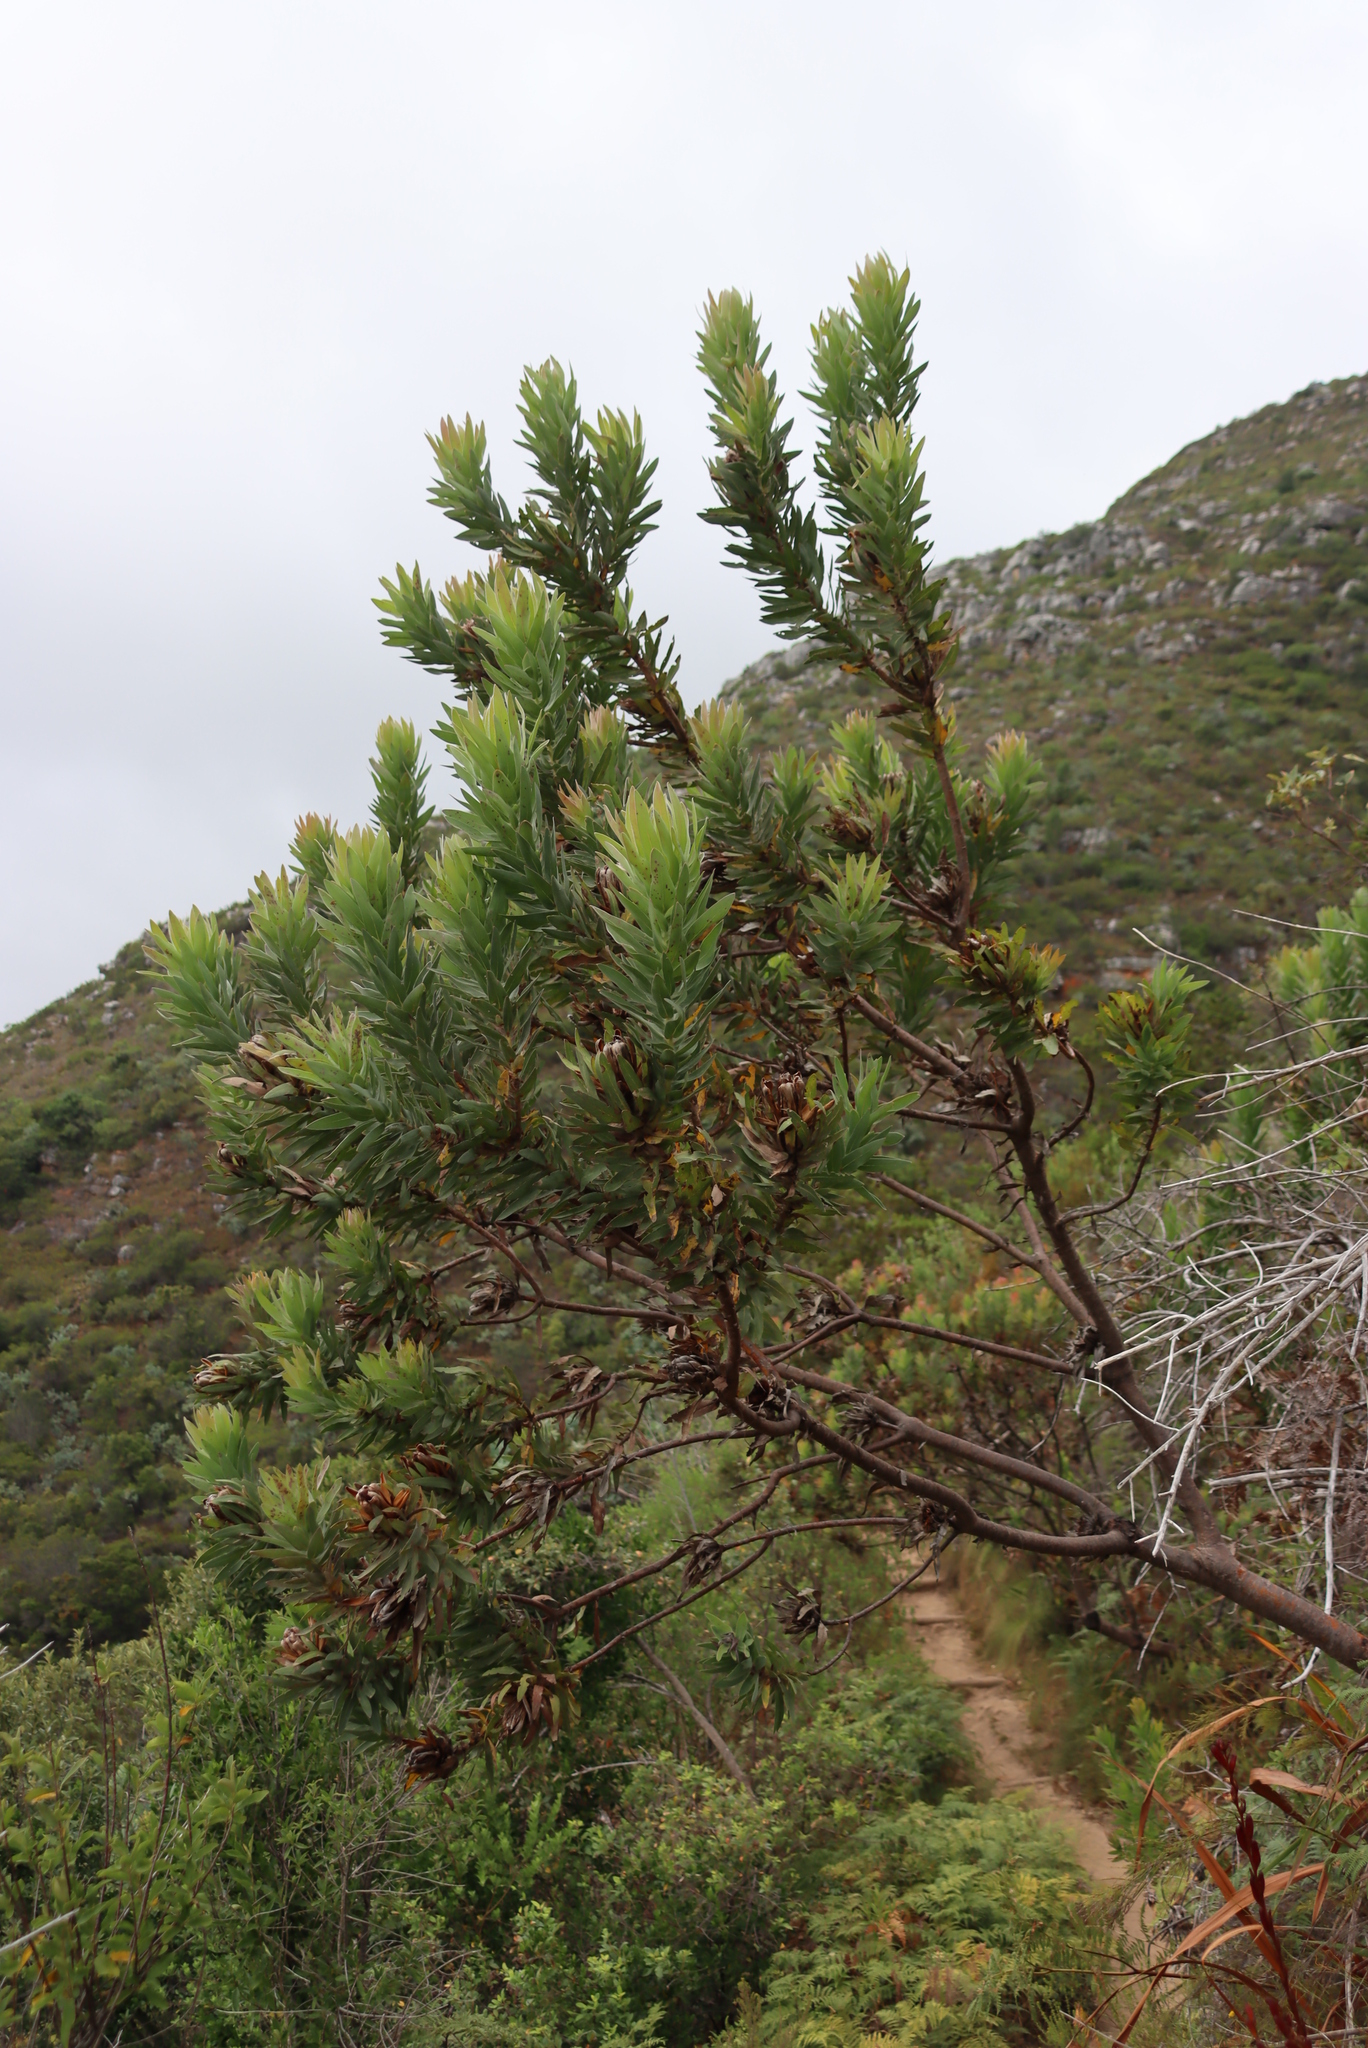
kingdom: Plantae
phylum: Tracheophyta
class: Magnoliopsida
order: Proteales
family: Proteaceae
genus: Protea
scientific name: Protea coronata
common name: Green sugarbush
